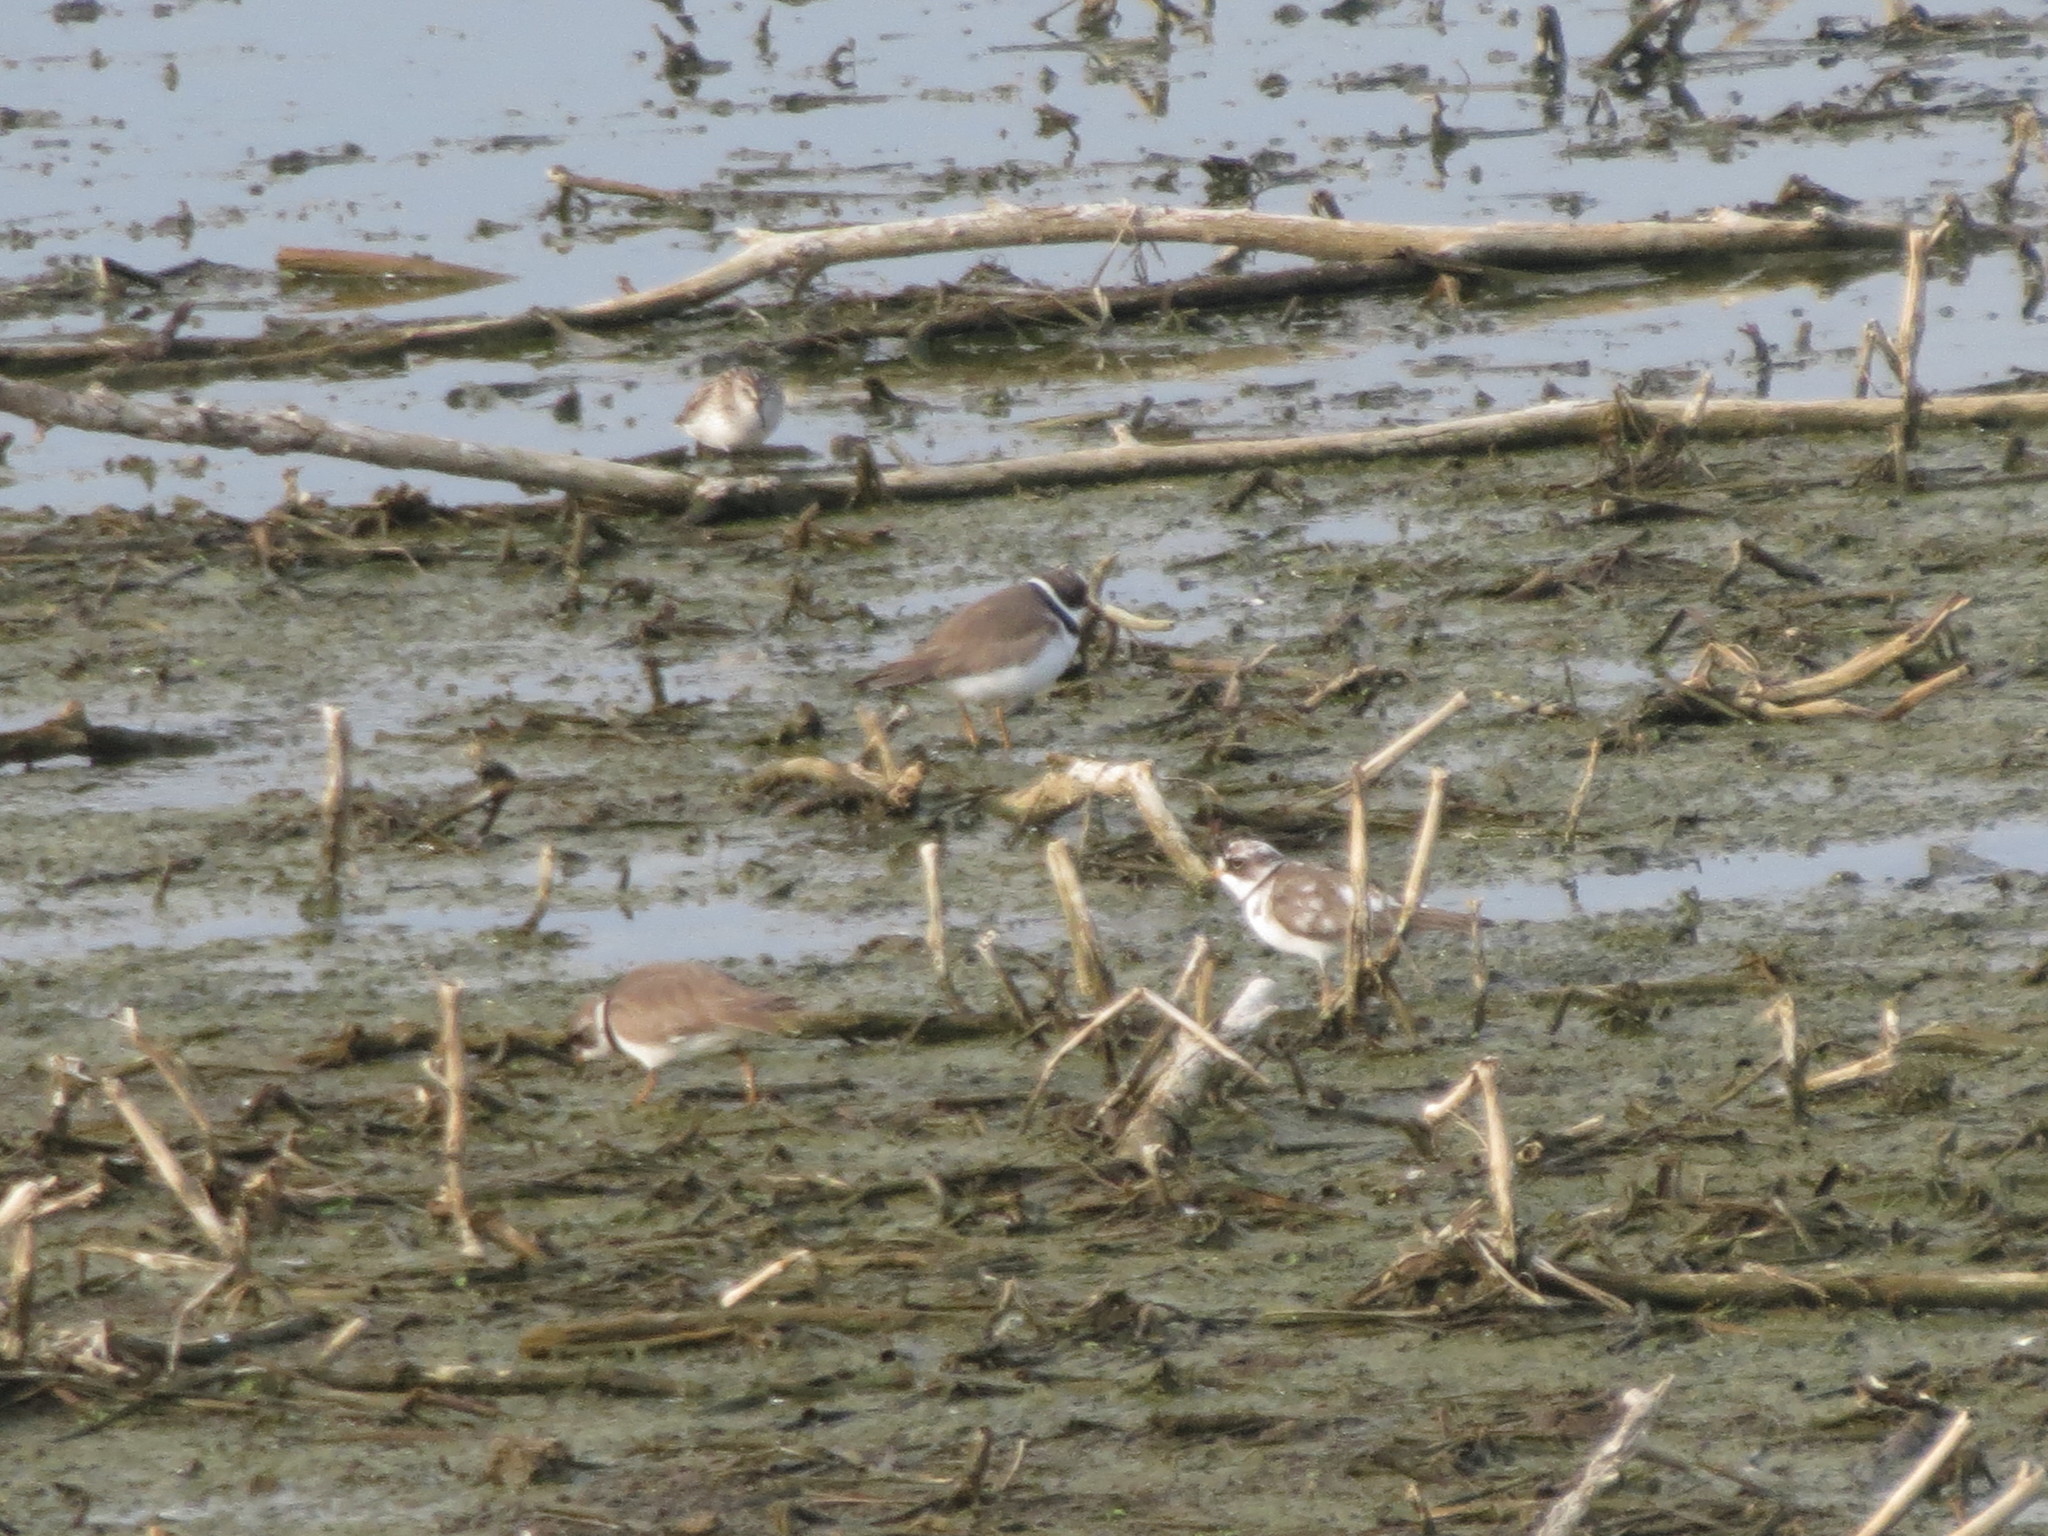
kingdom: Animalia
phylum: Chordata
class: Aves
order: Charadriiformes
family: Charadriidae
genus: Charadrius
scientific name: Charadrius semipalmatus
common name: Semipalmated plover
